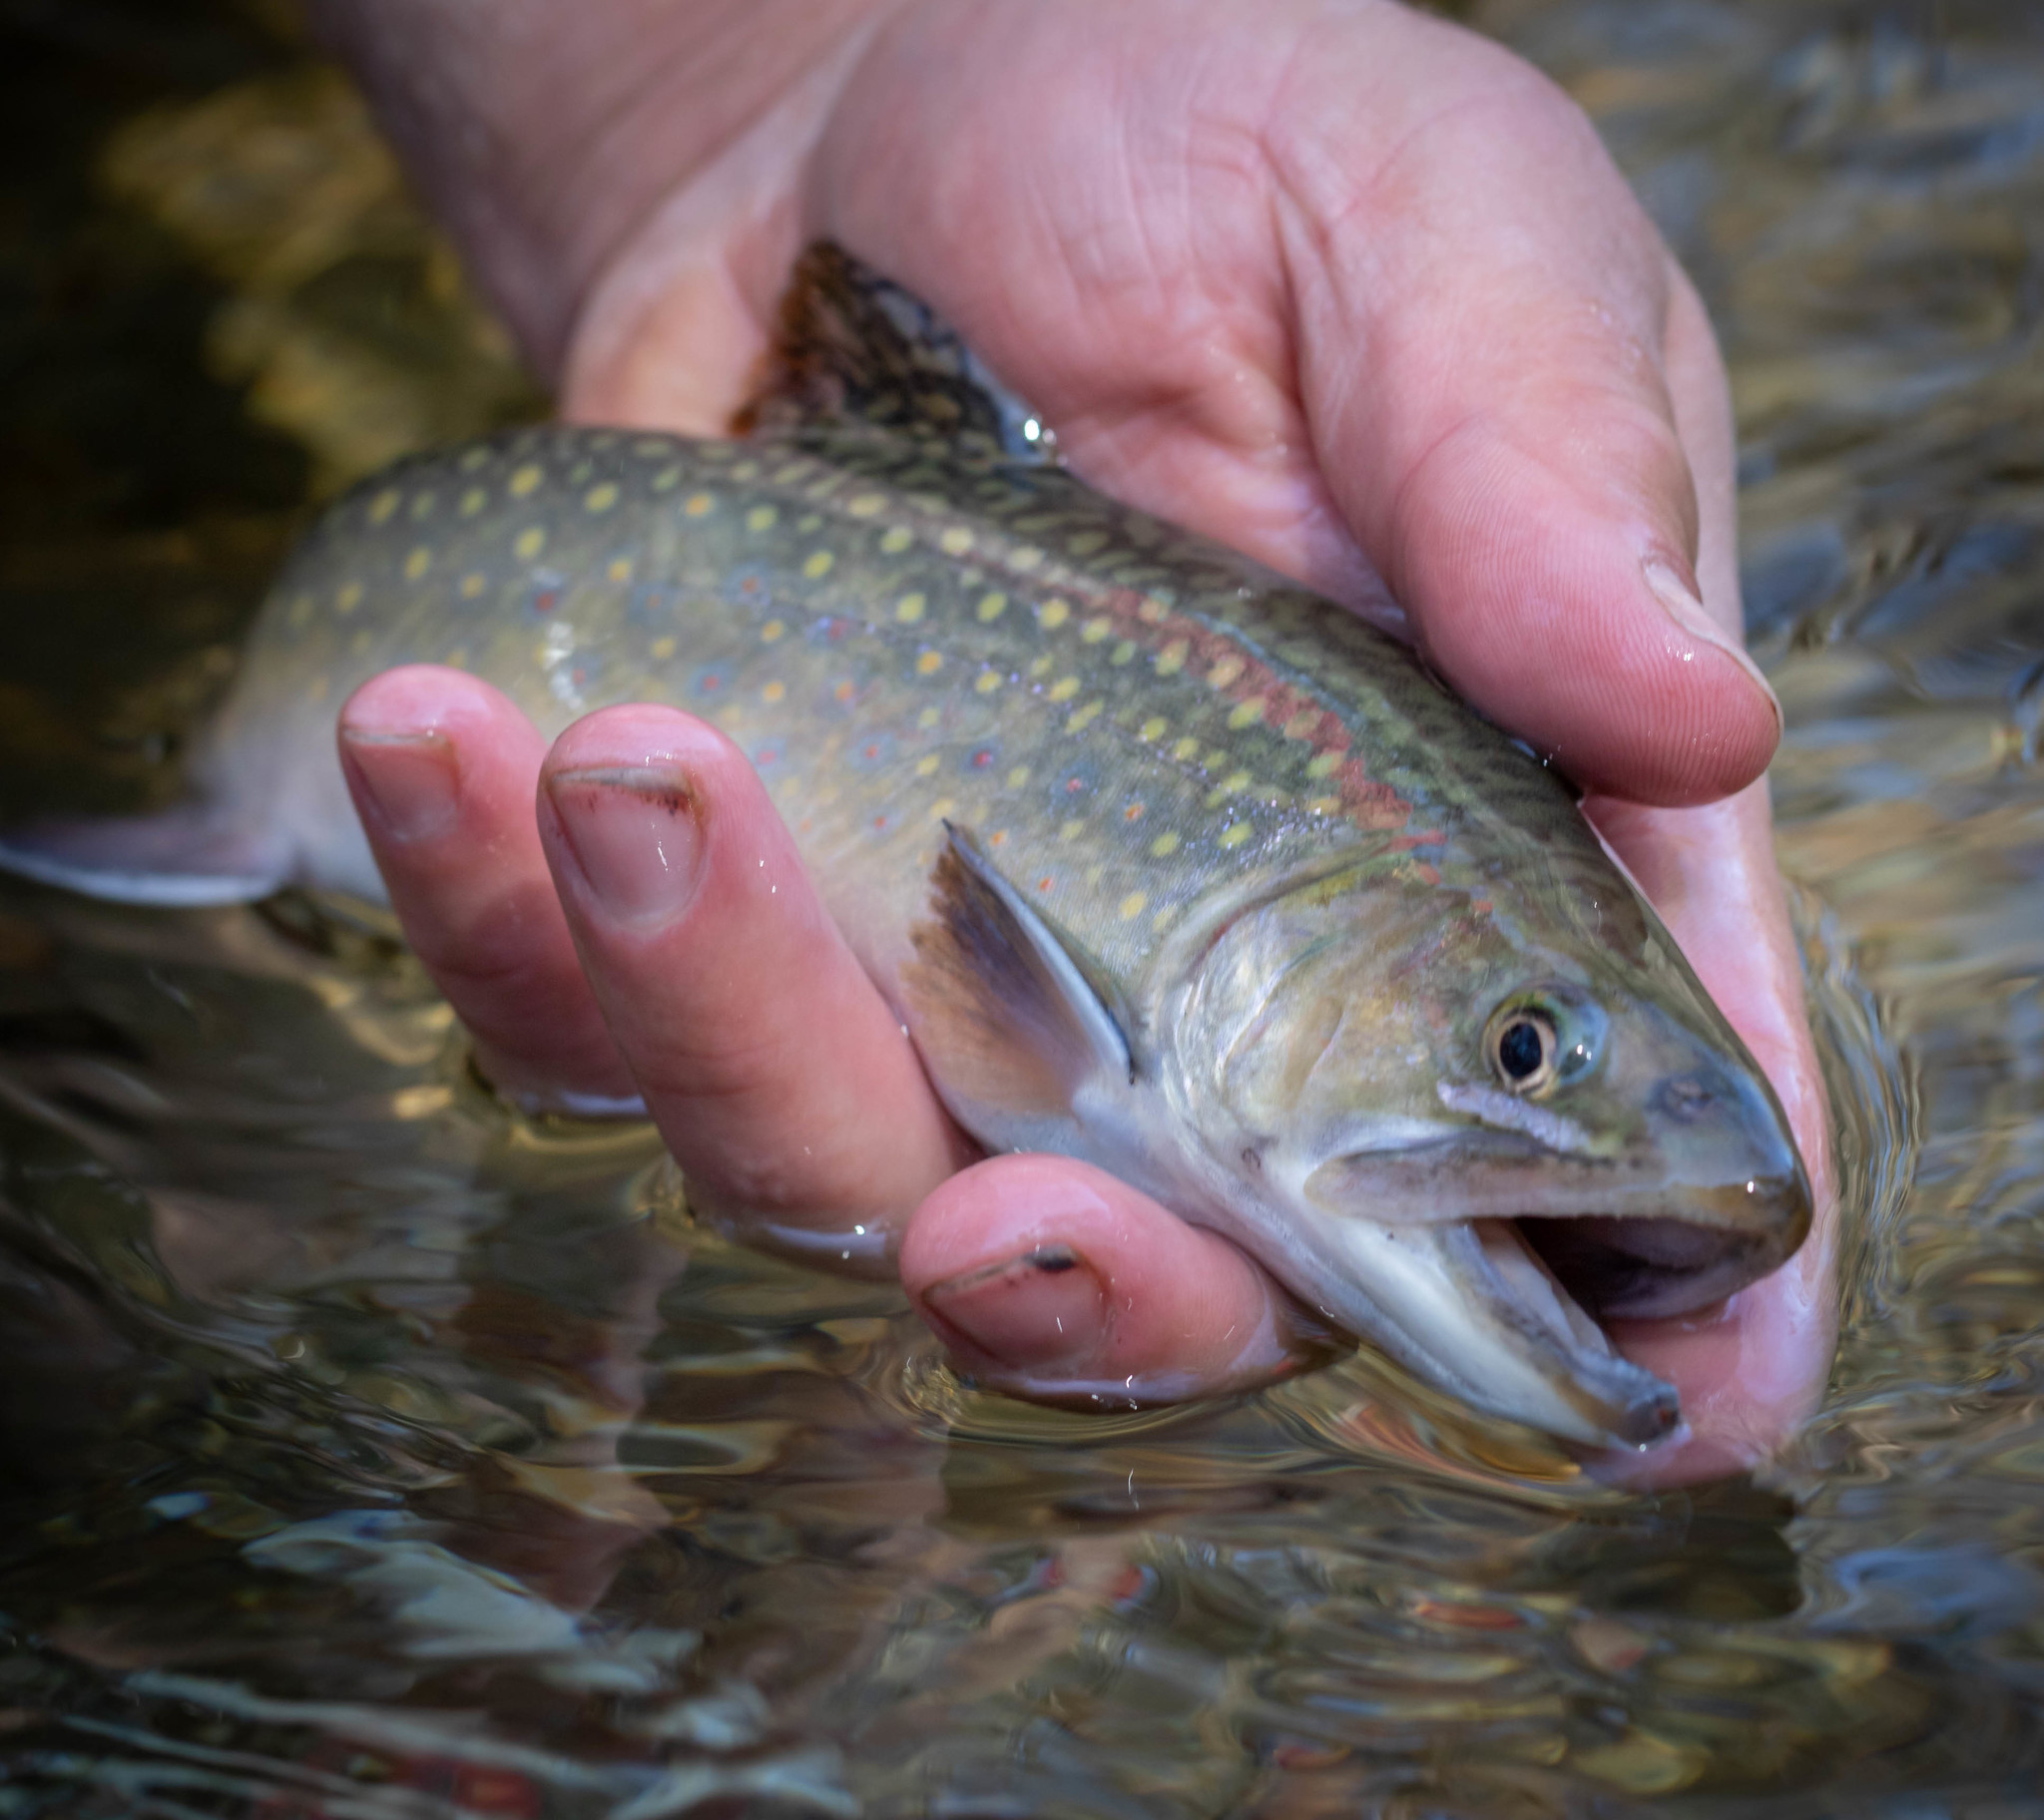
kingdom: Animalia
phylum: Chordata
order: Salmoniformes
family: Salmonidae
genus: Salvelinus
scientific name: Salvelinus fontinalis
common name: Brook trout
